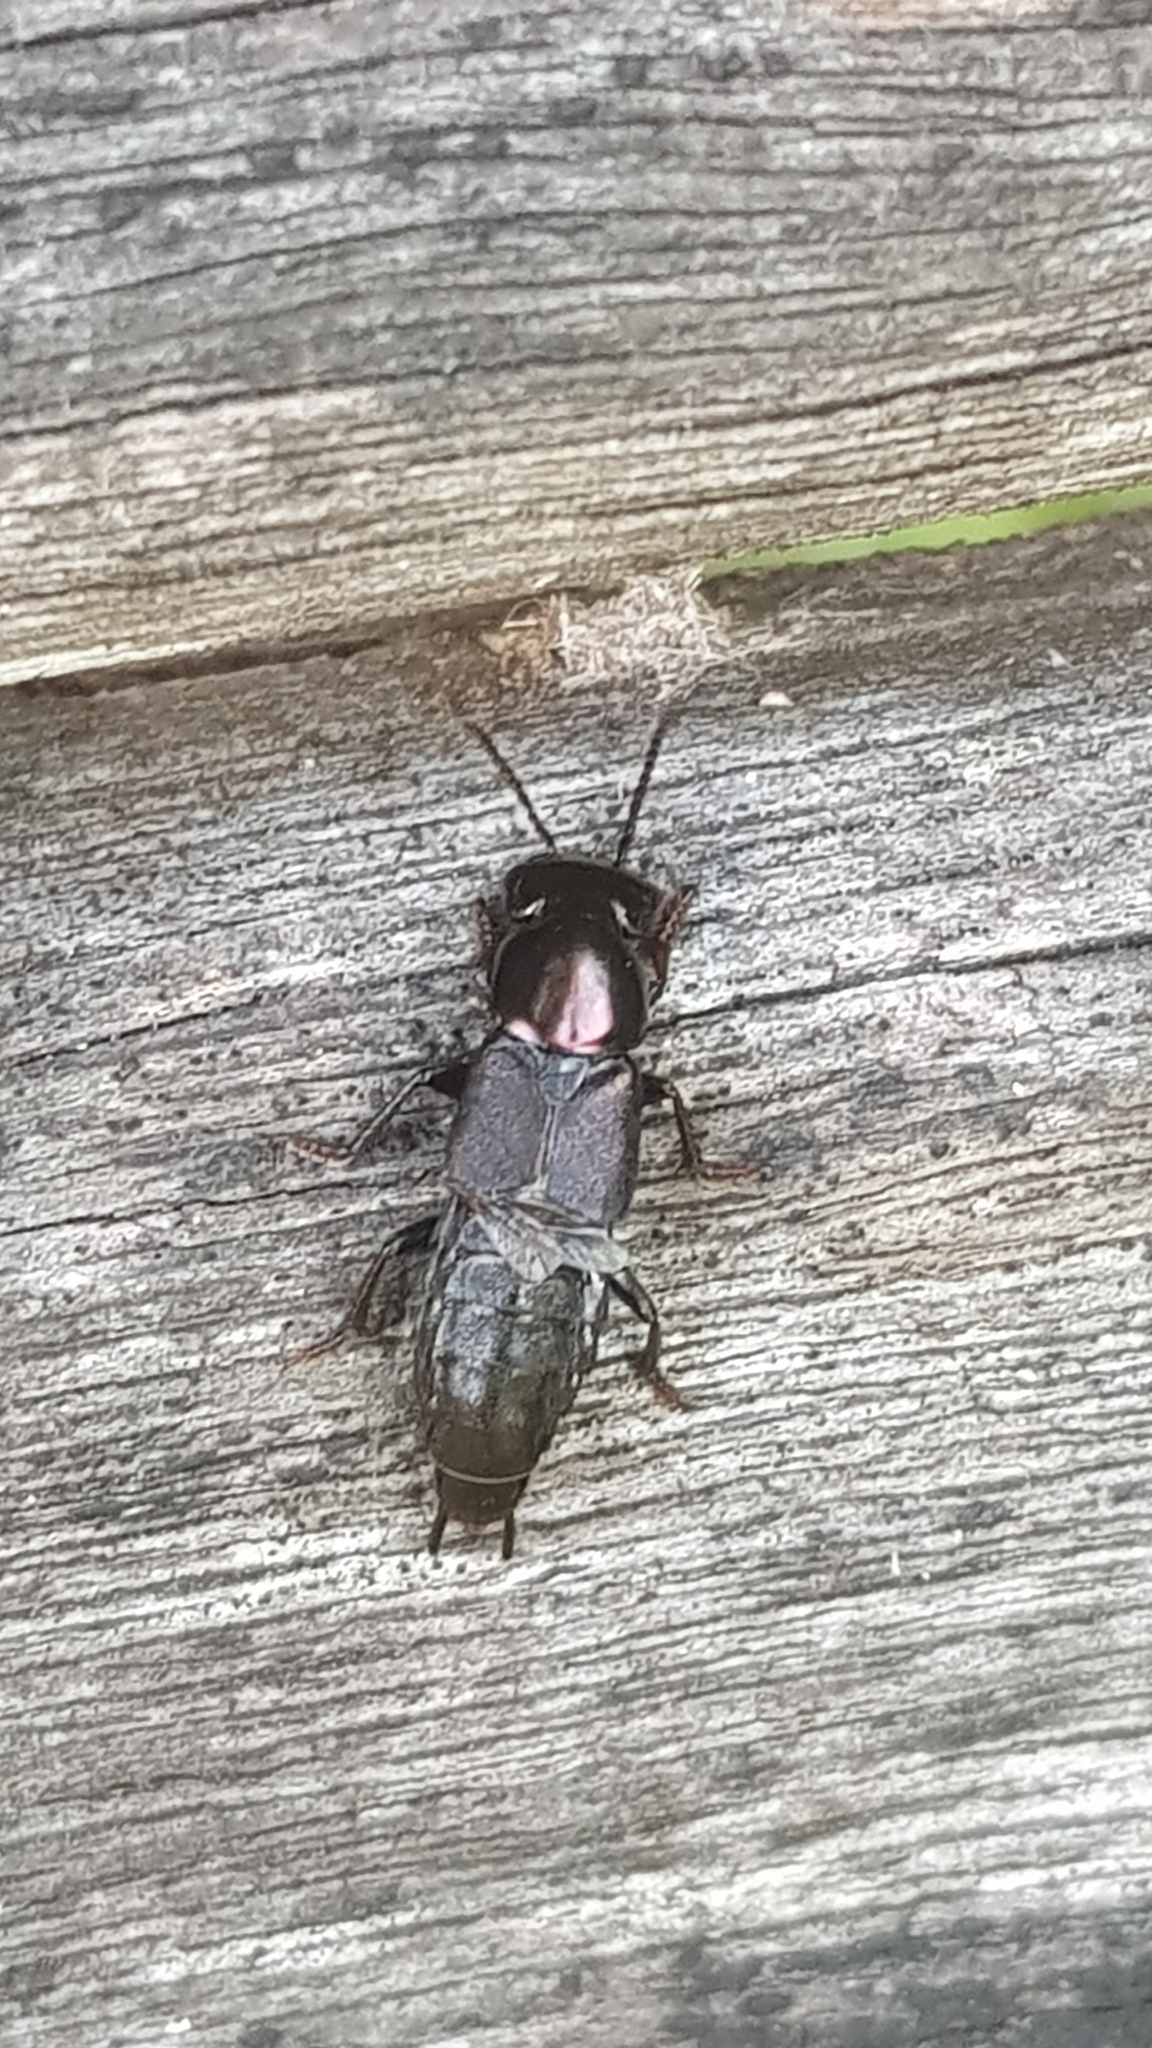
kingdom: Animalia
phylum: Arthropoda
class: Insecta
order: Coleoptera
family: Staphylinidae
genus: Antimerus
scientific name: Antimerus punctipennis
